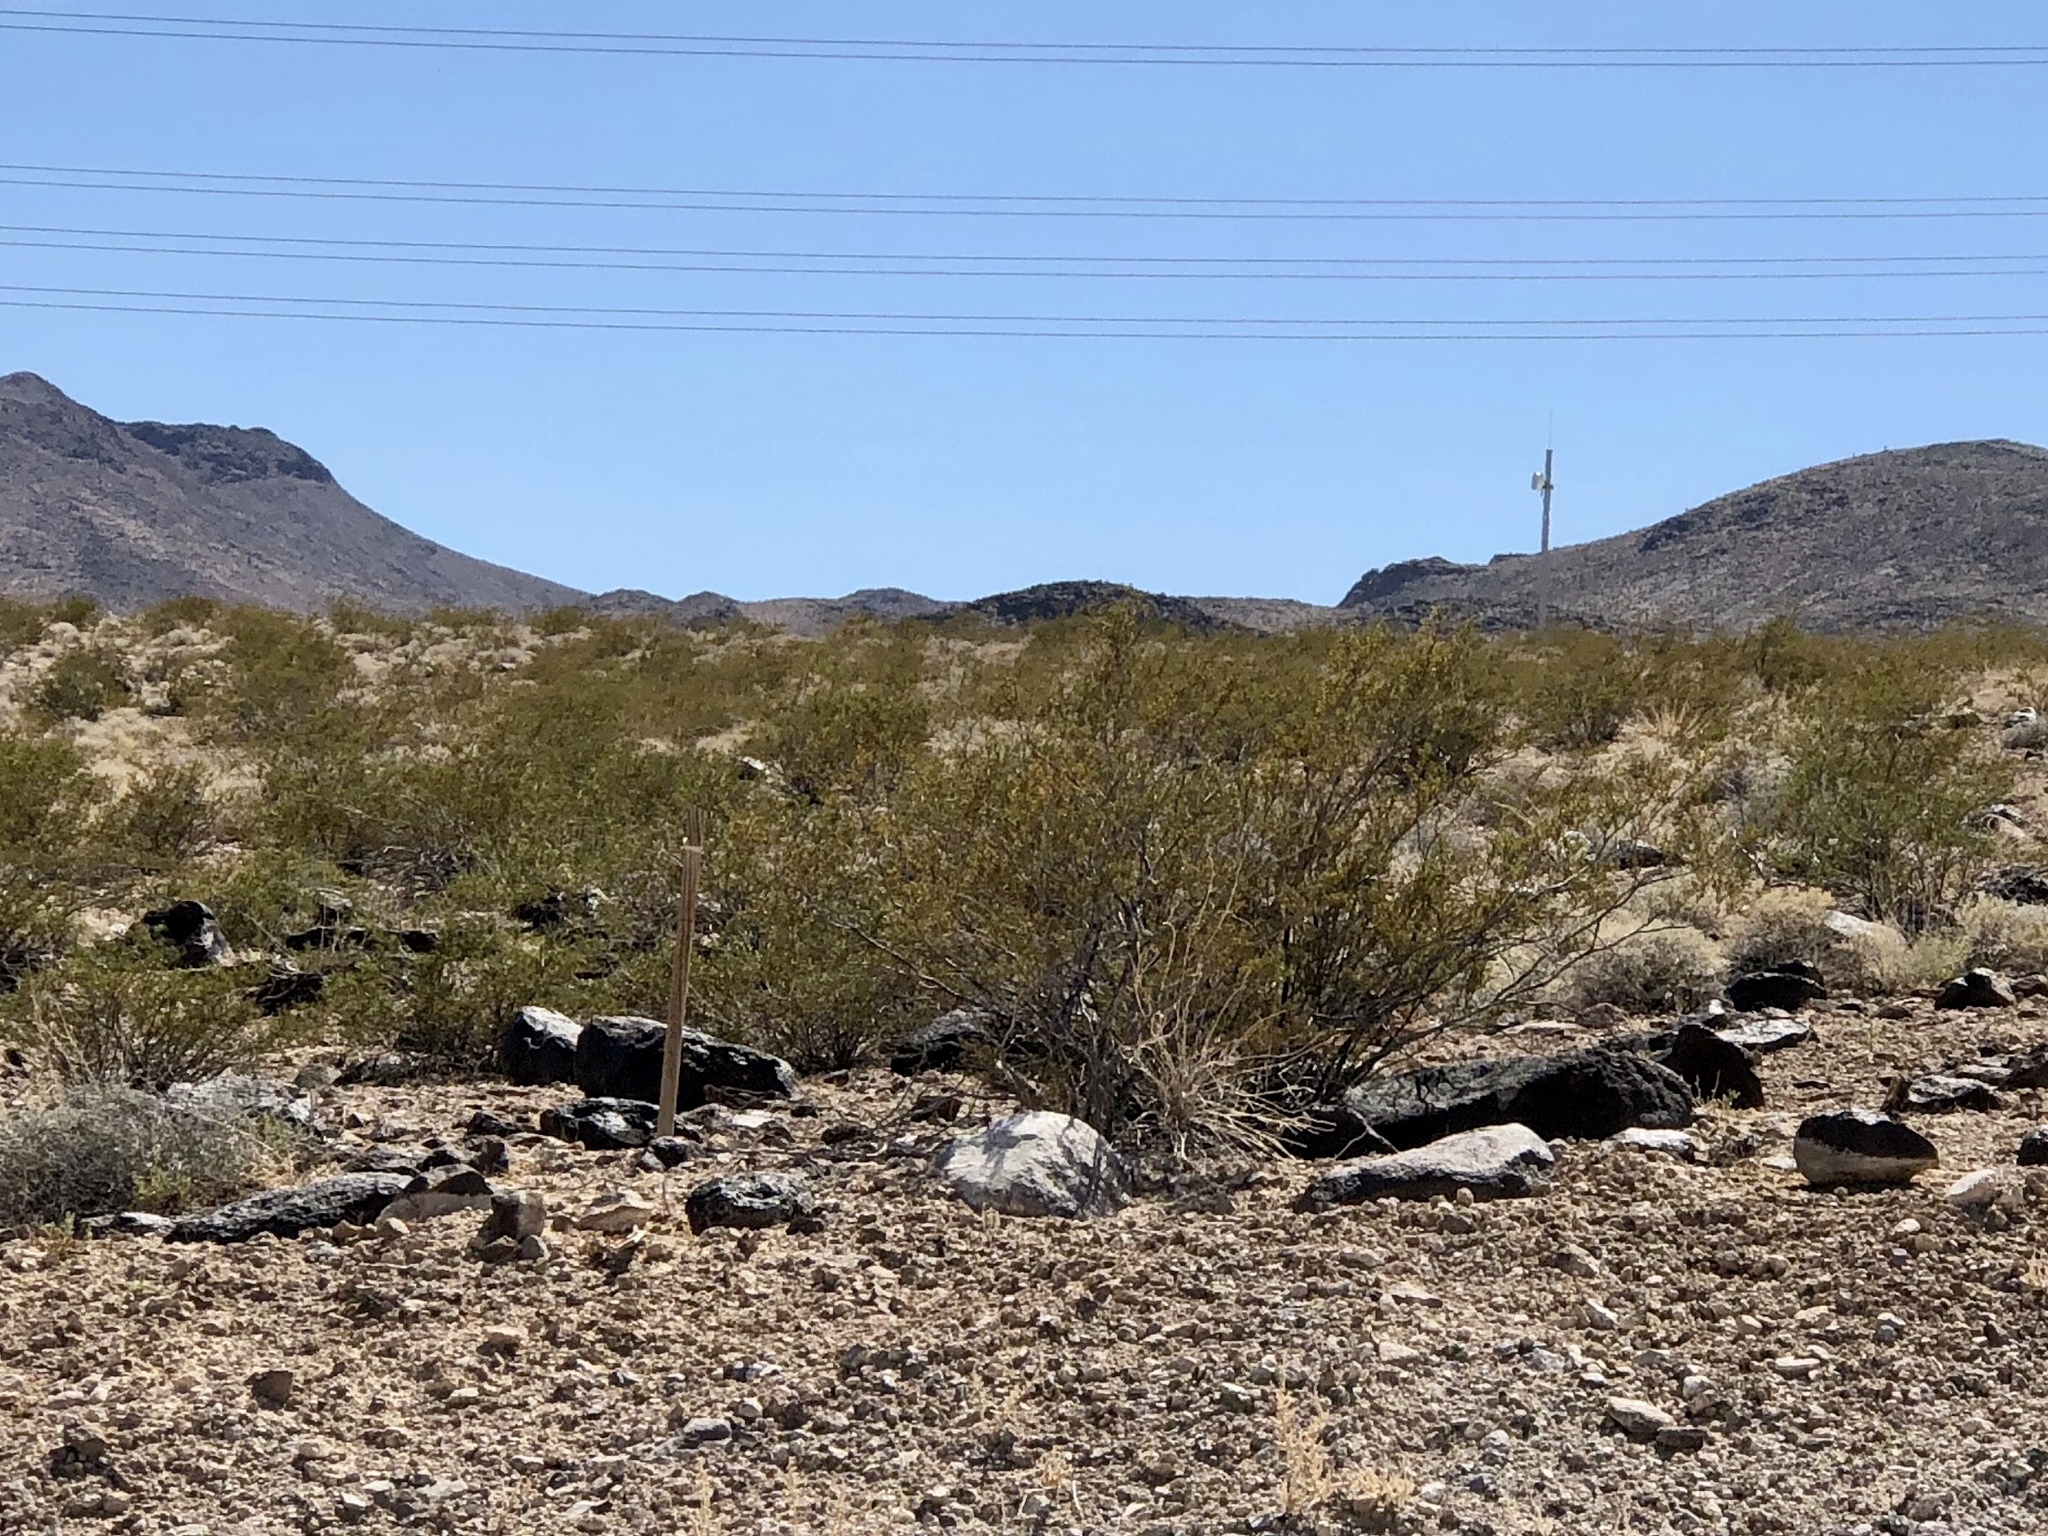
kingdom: Plantae
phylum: Tracheophyta
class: Magnoliopsida
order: Zygophyllales
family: Zygophyllaceae
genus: Larrea
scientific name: Larrea tridentata
